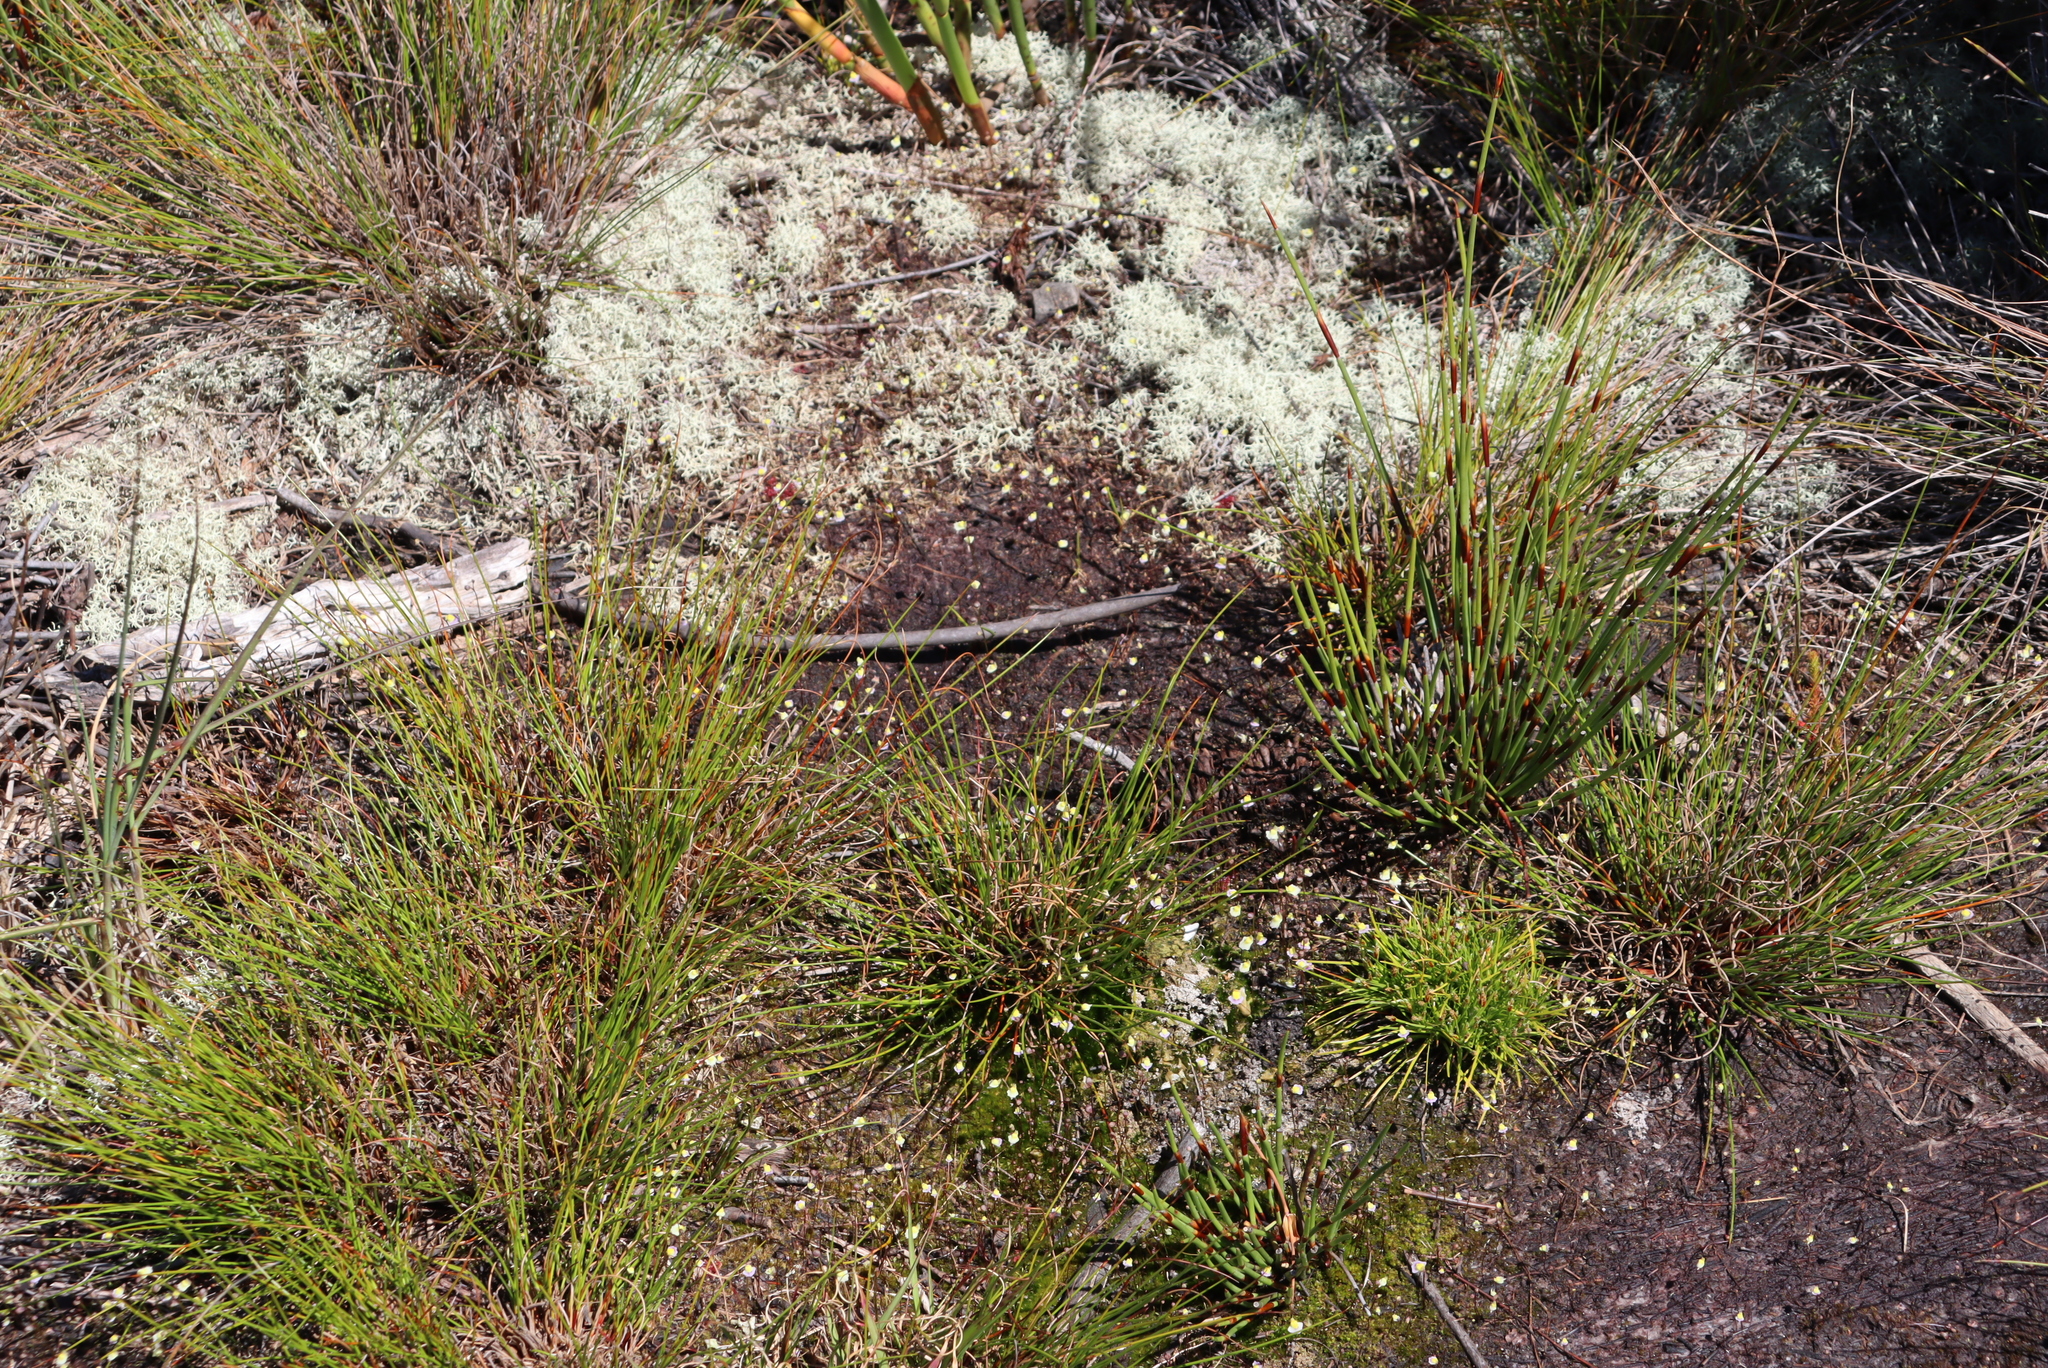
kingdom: Plantae
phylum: Tracheophyta
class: Magnoliopsida
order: Lamiales
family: Lentibulariaceae
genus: Utricularia
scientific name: Utricularia bisquamata
